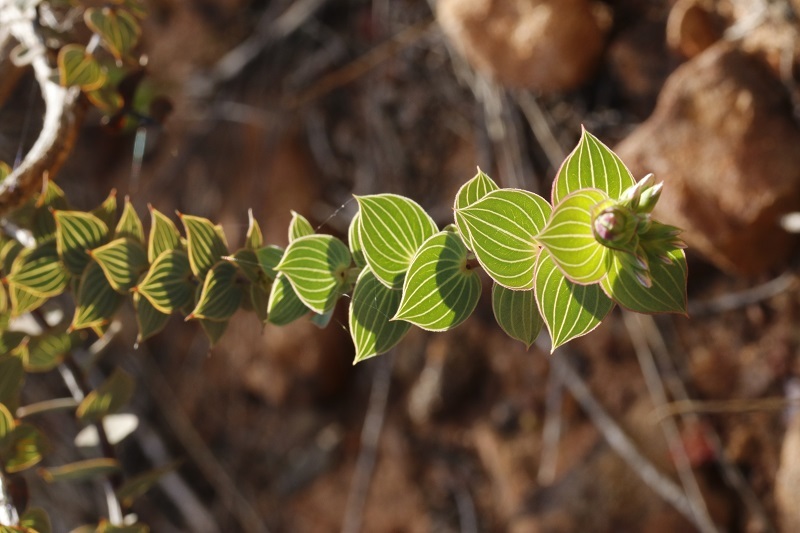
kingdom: Plantae
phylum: Tracheophyta
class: Magnoliopsida
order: Fabales
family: Fabaceae
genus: Aspalathus
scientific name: Aspalathus crenata
